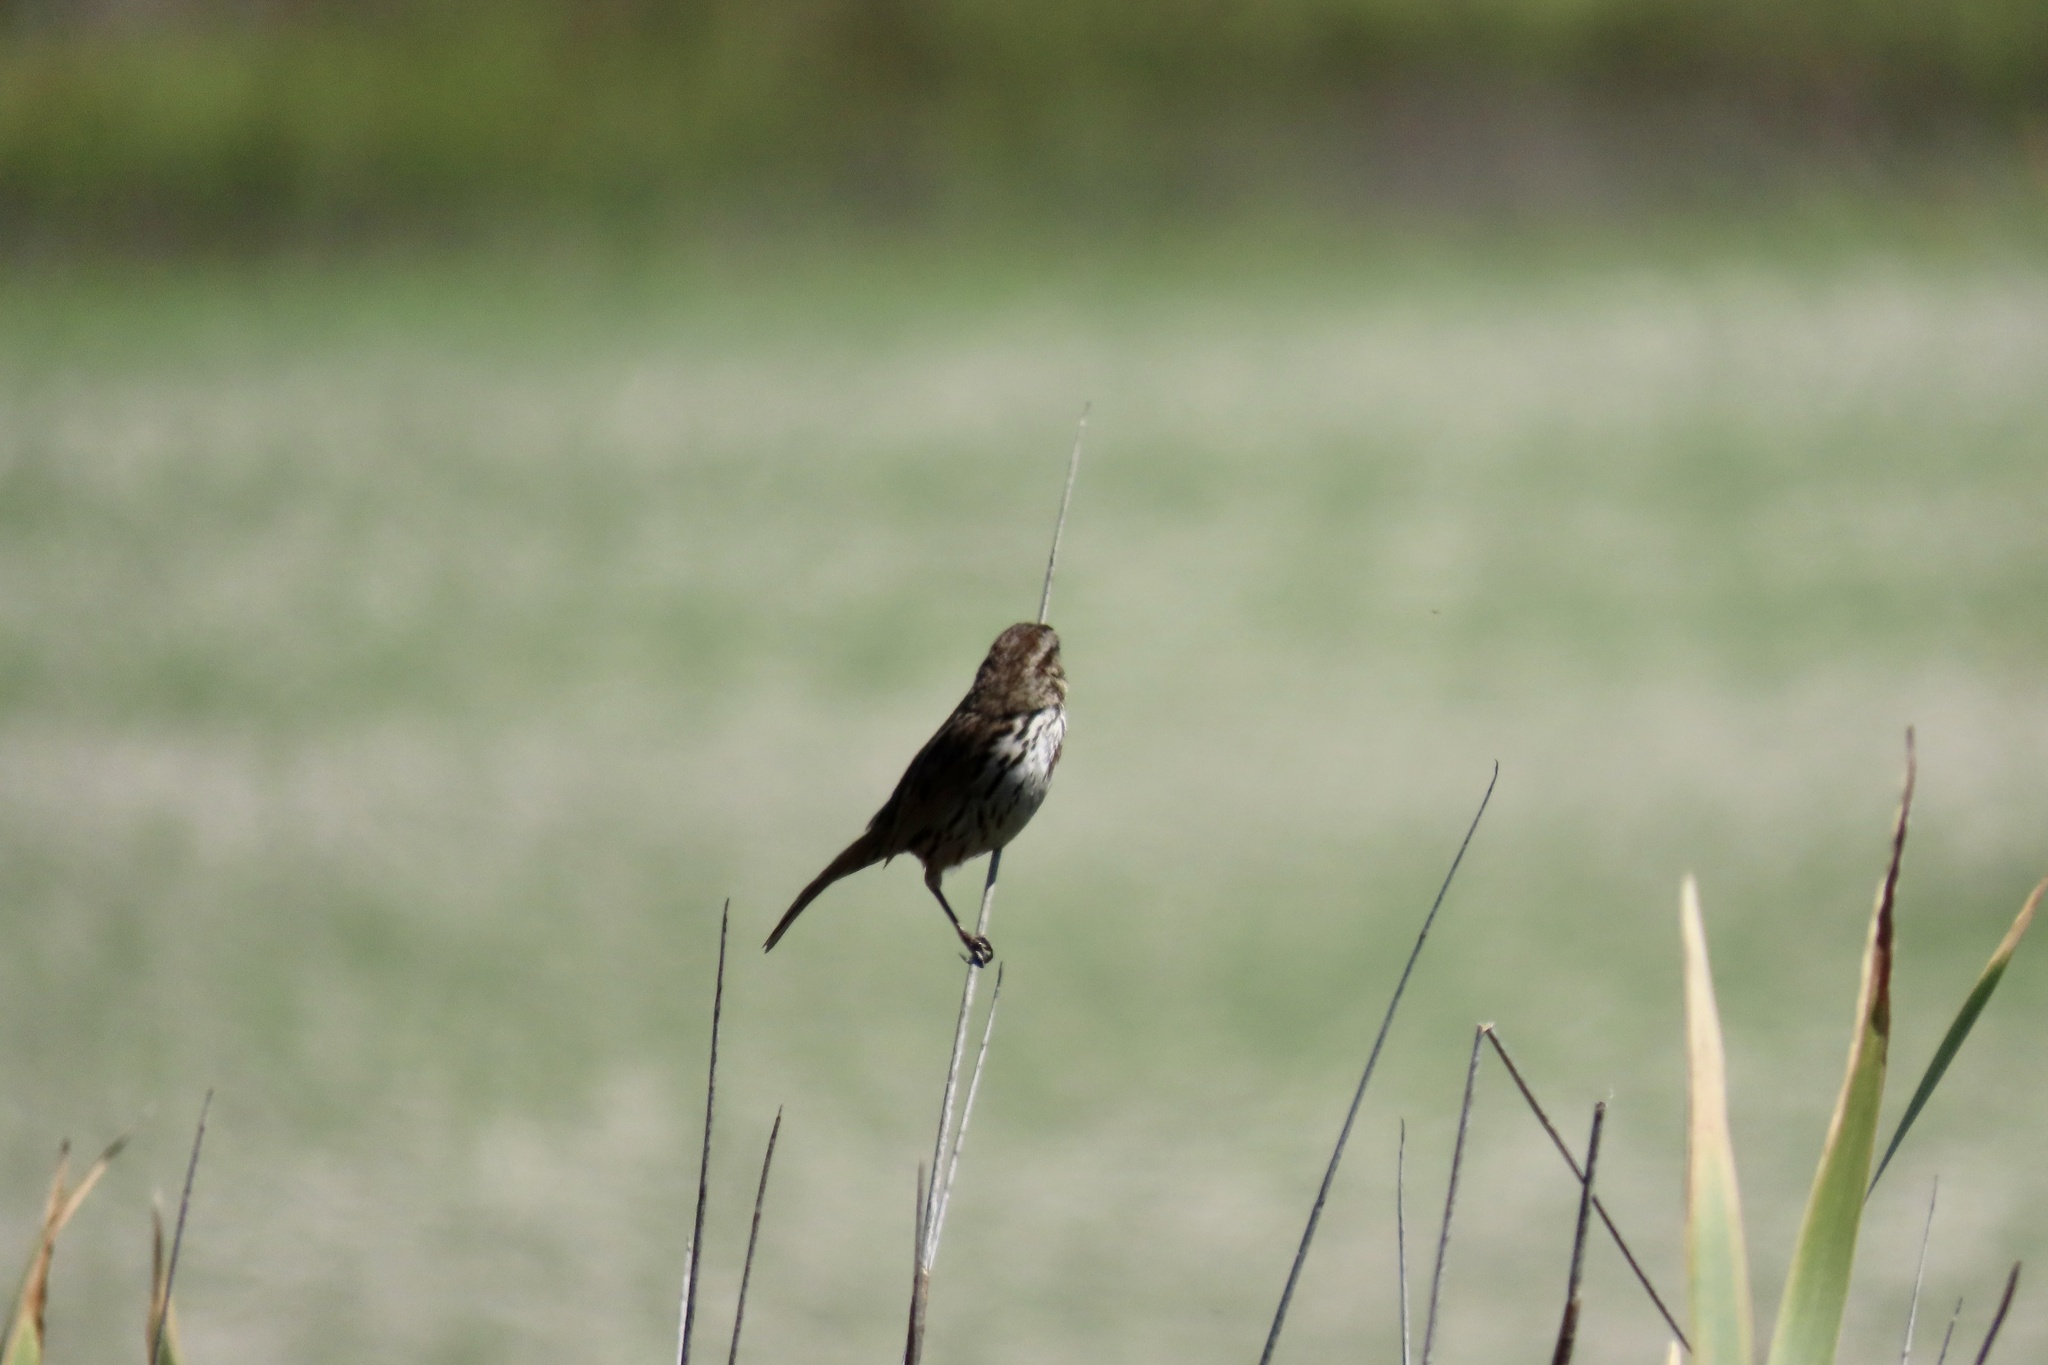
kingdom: Animalia
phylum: Chordata
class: Aves
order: Passeriformes
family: Passerellidae
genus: Melospiza
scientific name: Melospiza melodia
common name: Song sparrow
